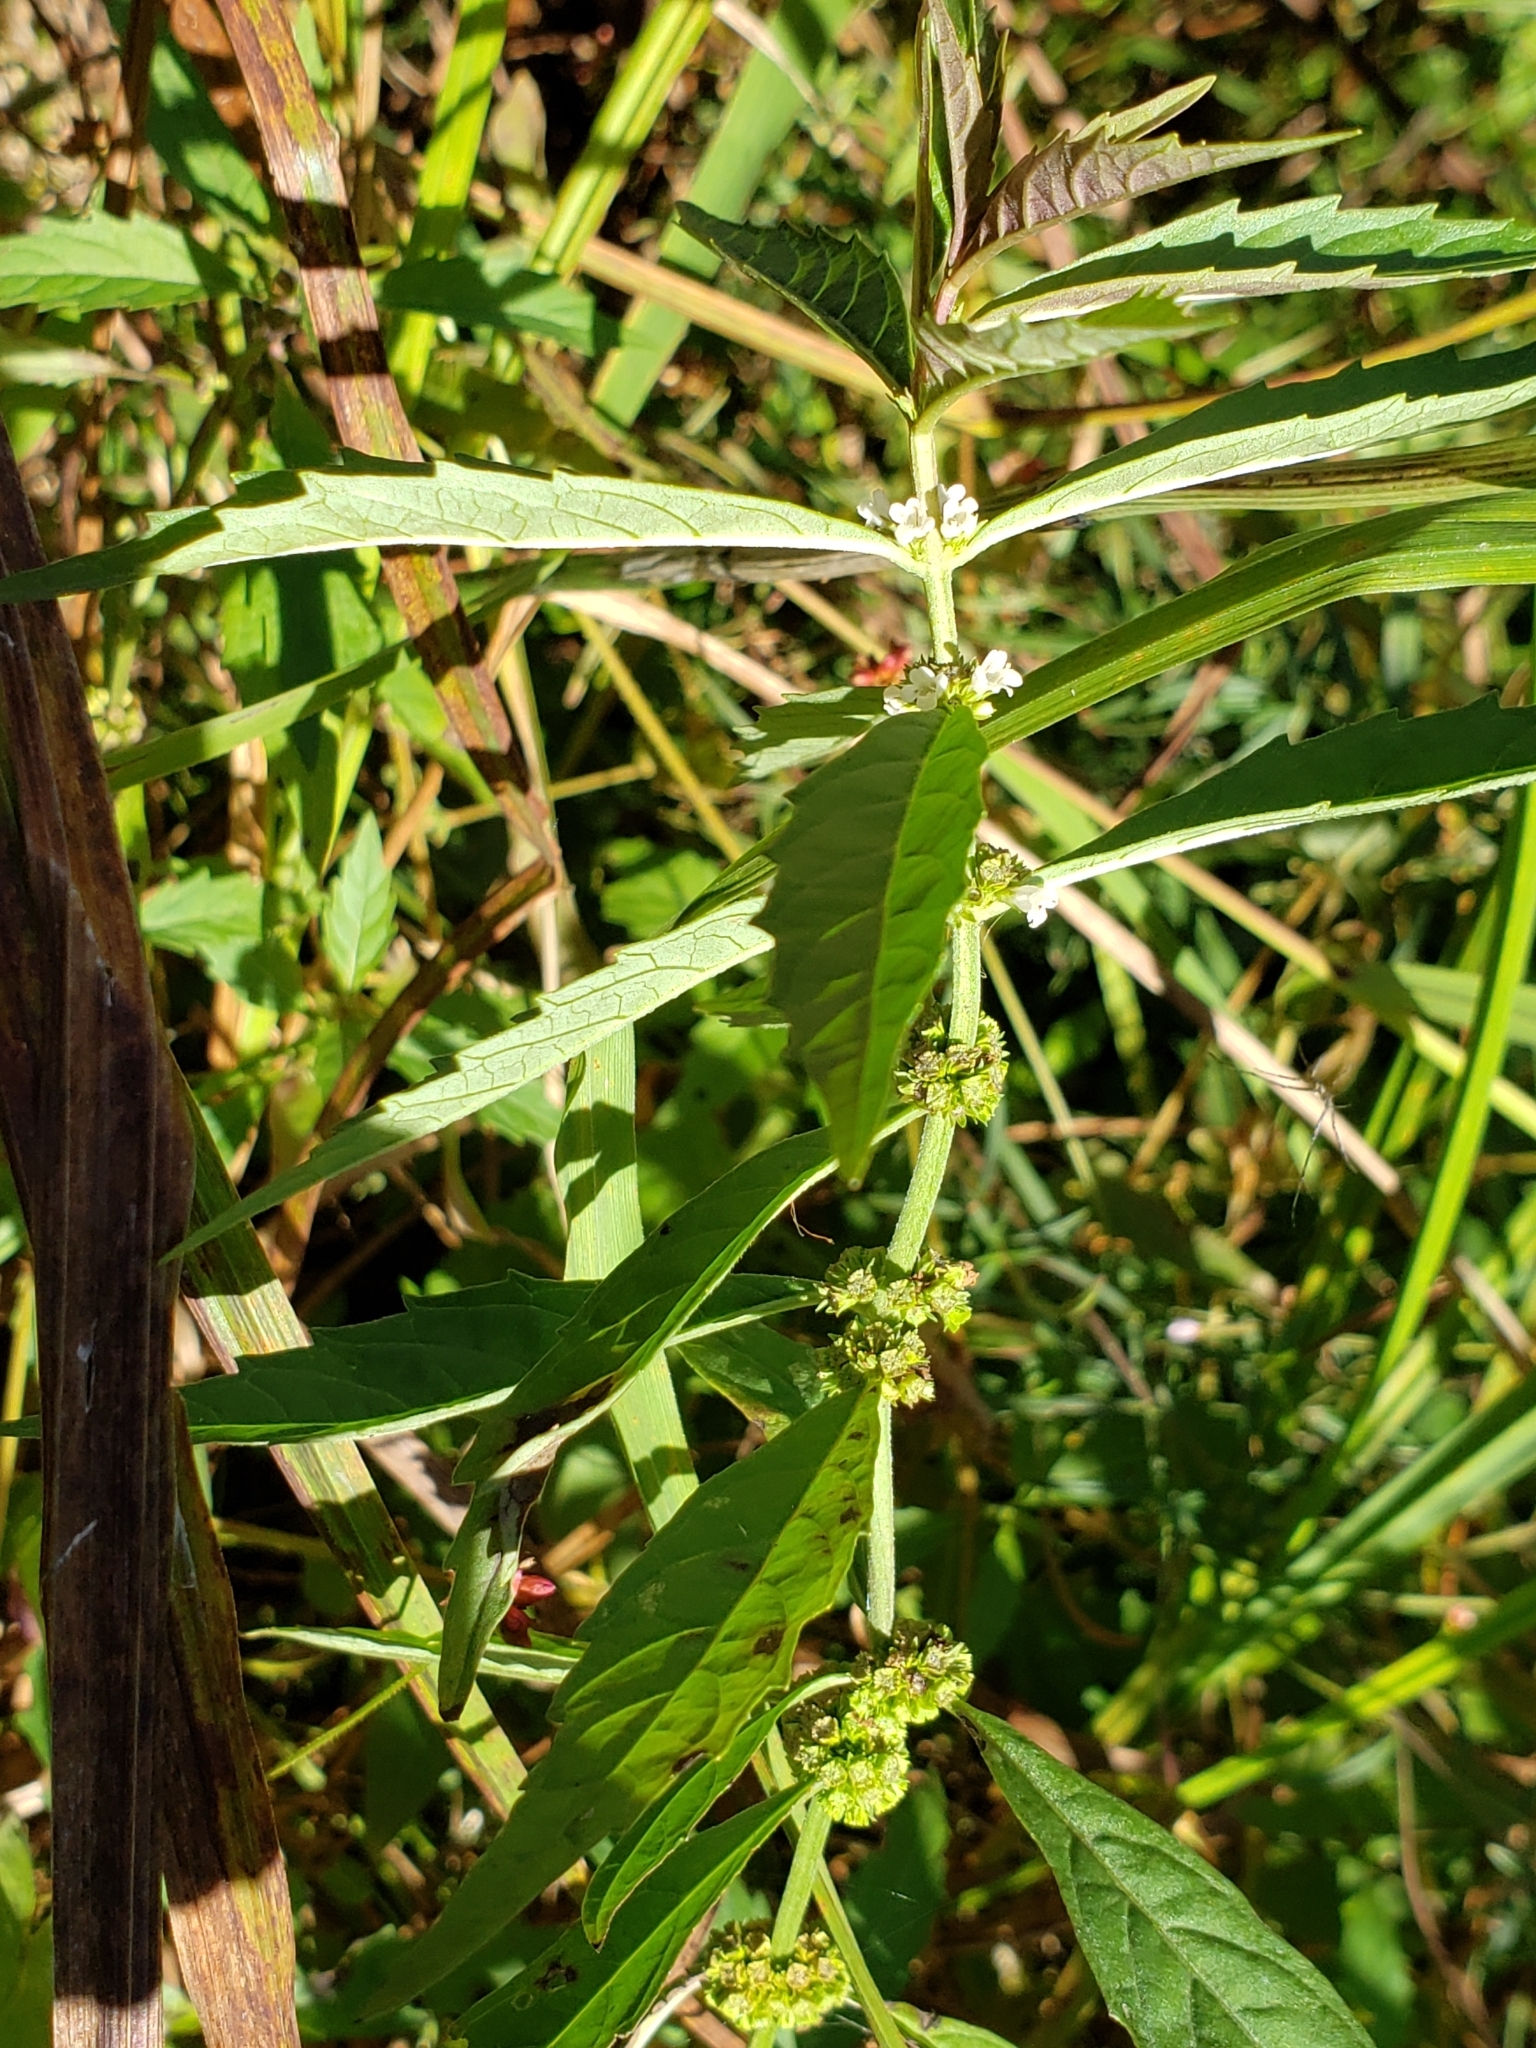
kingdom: Plantae
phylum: Tracheophyta
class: Magnoliopsida
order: Lamiales
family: Lamiaceae
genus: Lycopus
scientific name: Lycopus uniflorus
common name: Northern bugleweed
